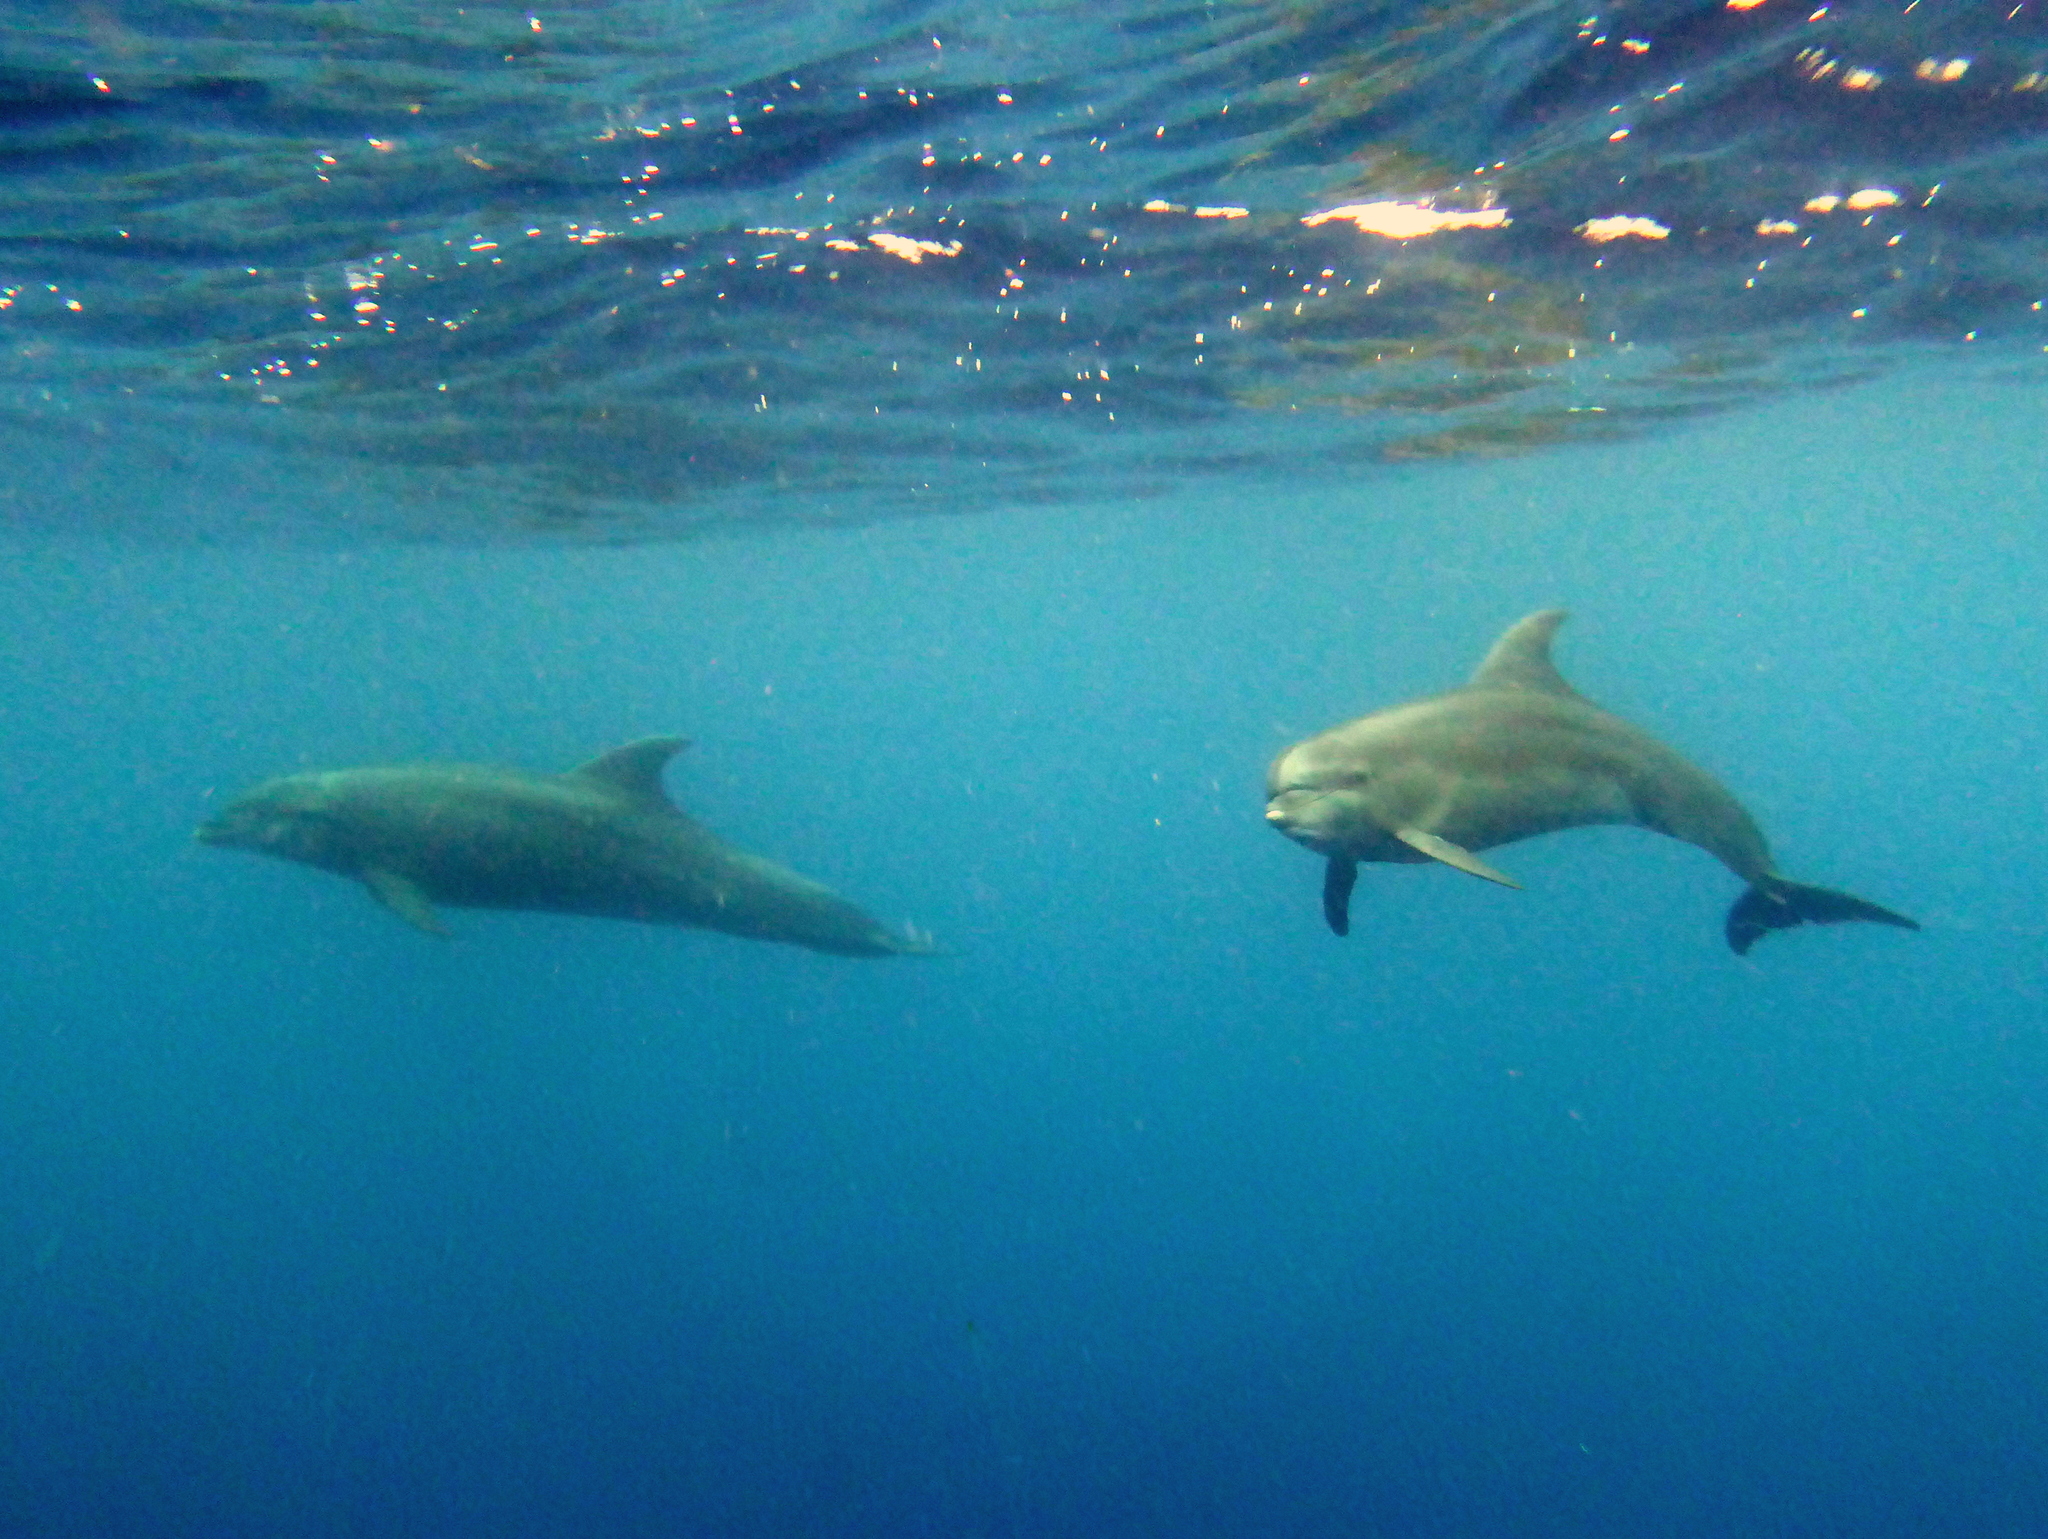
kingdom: Animalia
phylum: Chordata
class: Mammalia
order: Cetacea
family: Delphinidae
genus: Tursiops
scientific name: Tursiops truncatus
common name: Bottlenose dolphin
